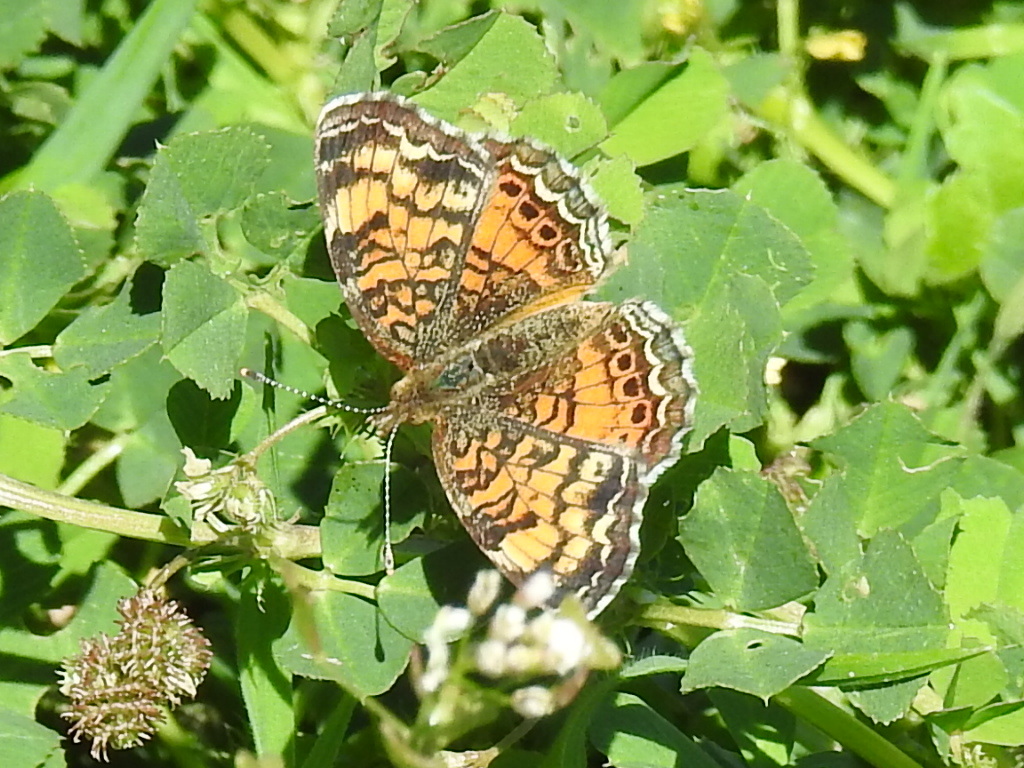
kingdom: Animalia
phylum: Arthropoda
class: Insecta
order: Lepidoptera
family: Nymphalidae
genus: Phyciodes
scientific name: Phyciodes tharos
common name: Pearl crescent
